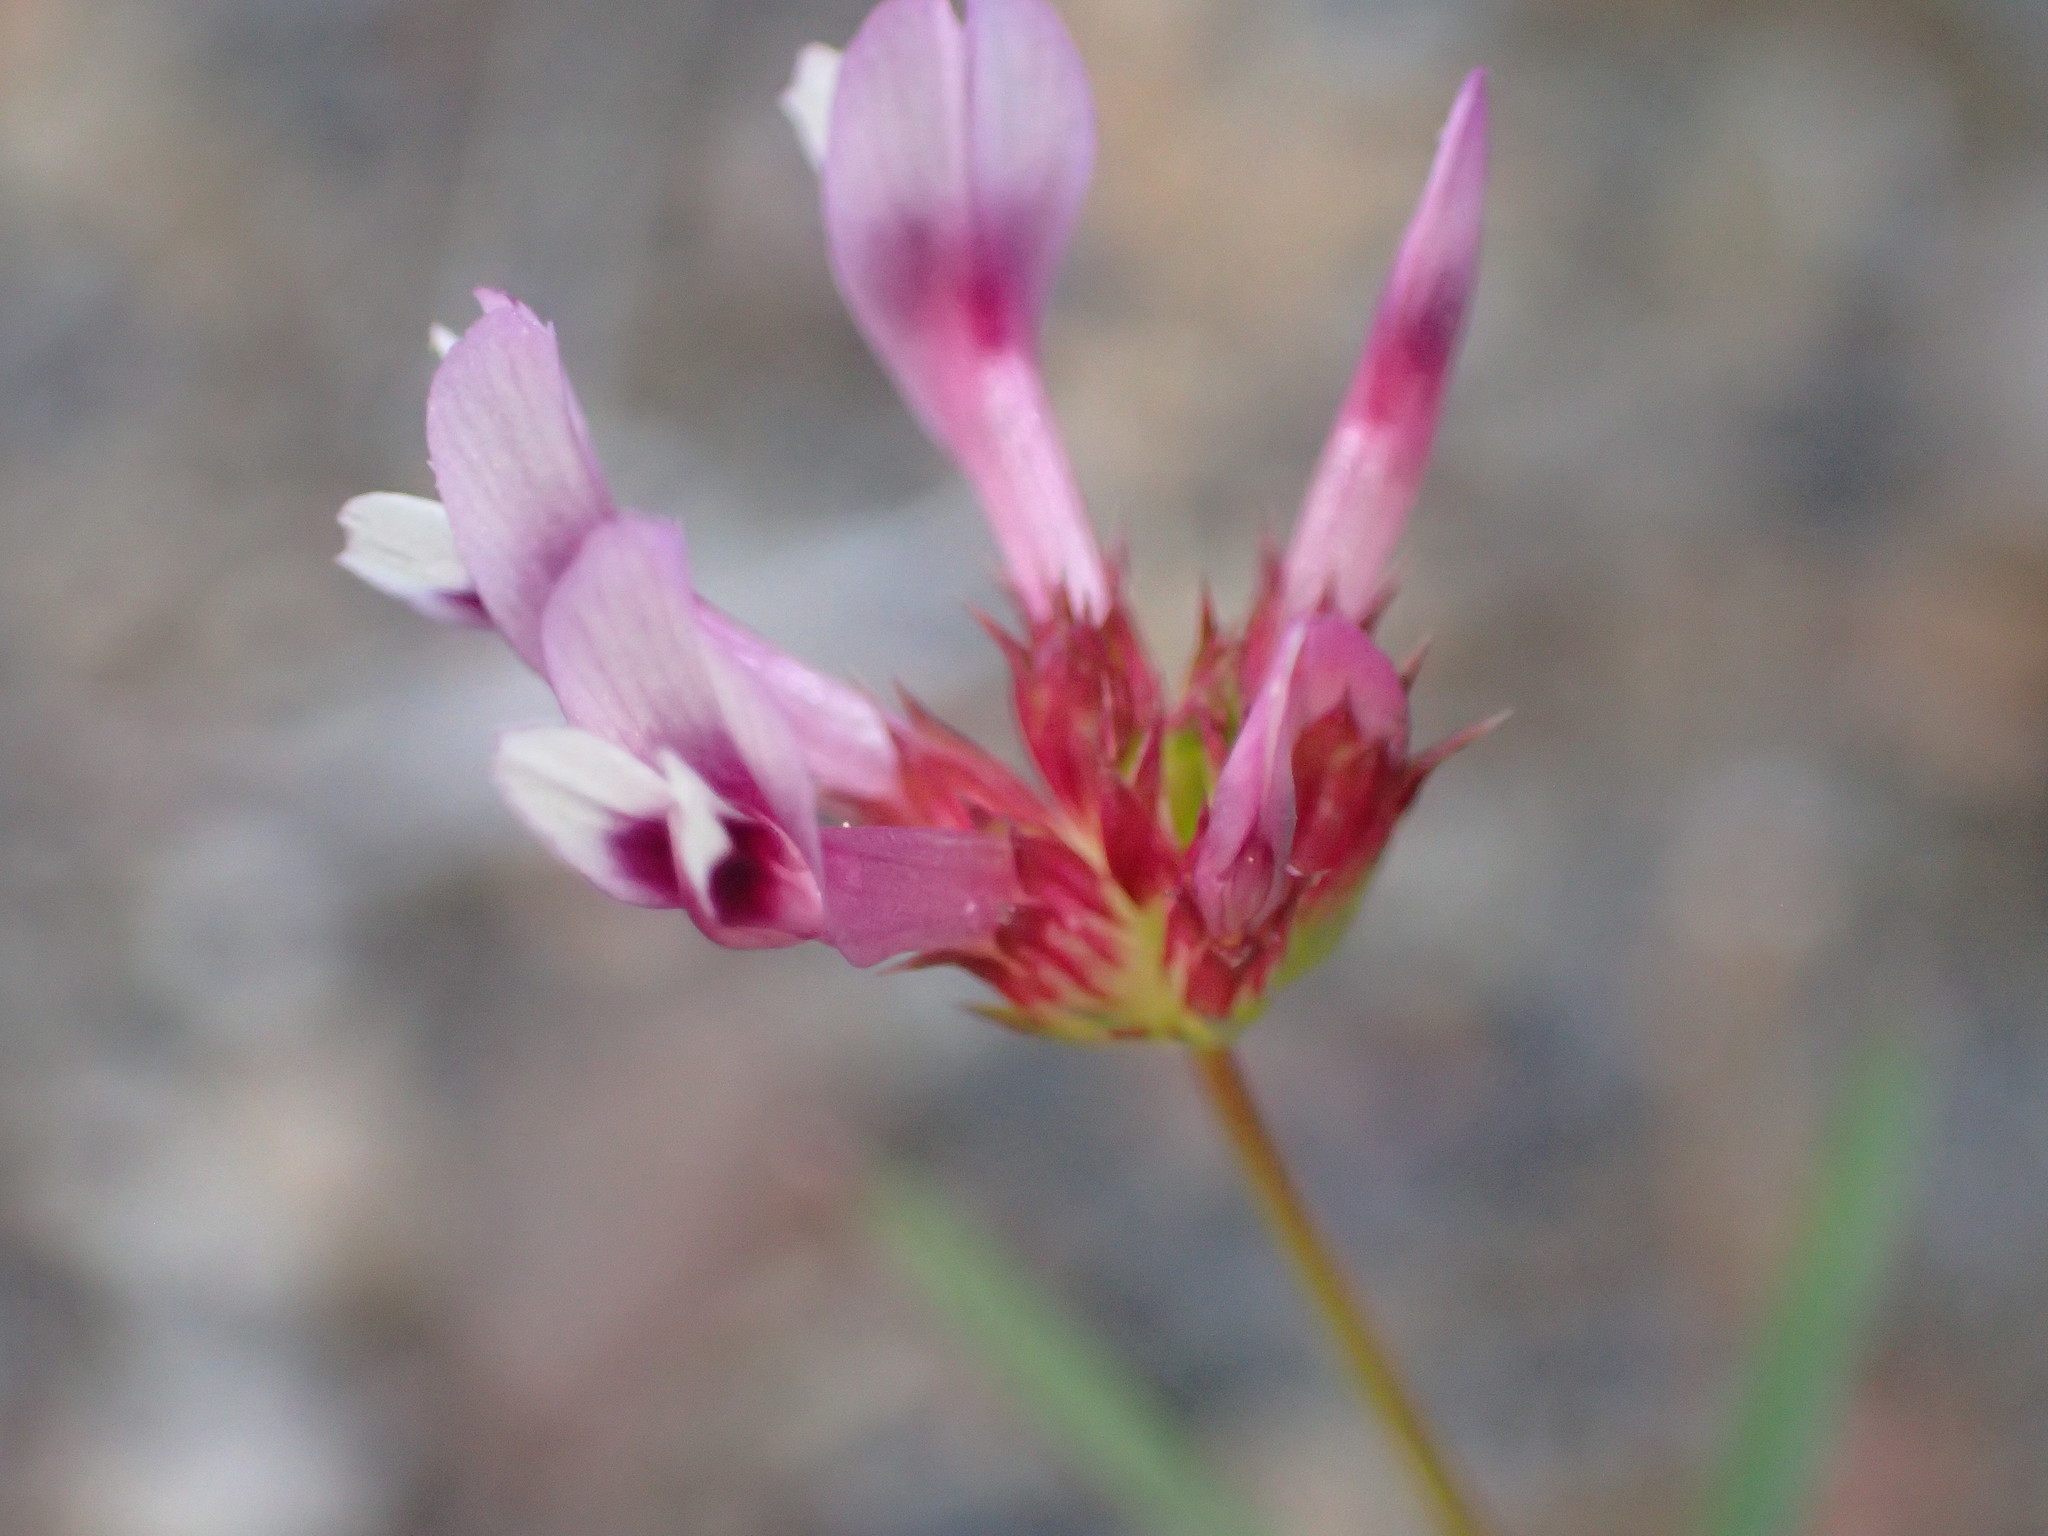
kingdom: Plantae
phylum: Tracheophyta
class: Magnoliopsida
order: Fabales
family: Fabaceae
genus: Trifolium
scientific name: Trifolium willdenovii
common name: Tomcat clover
